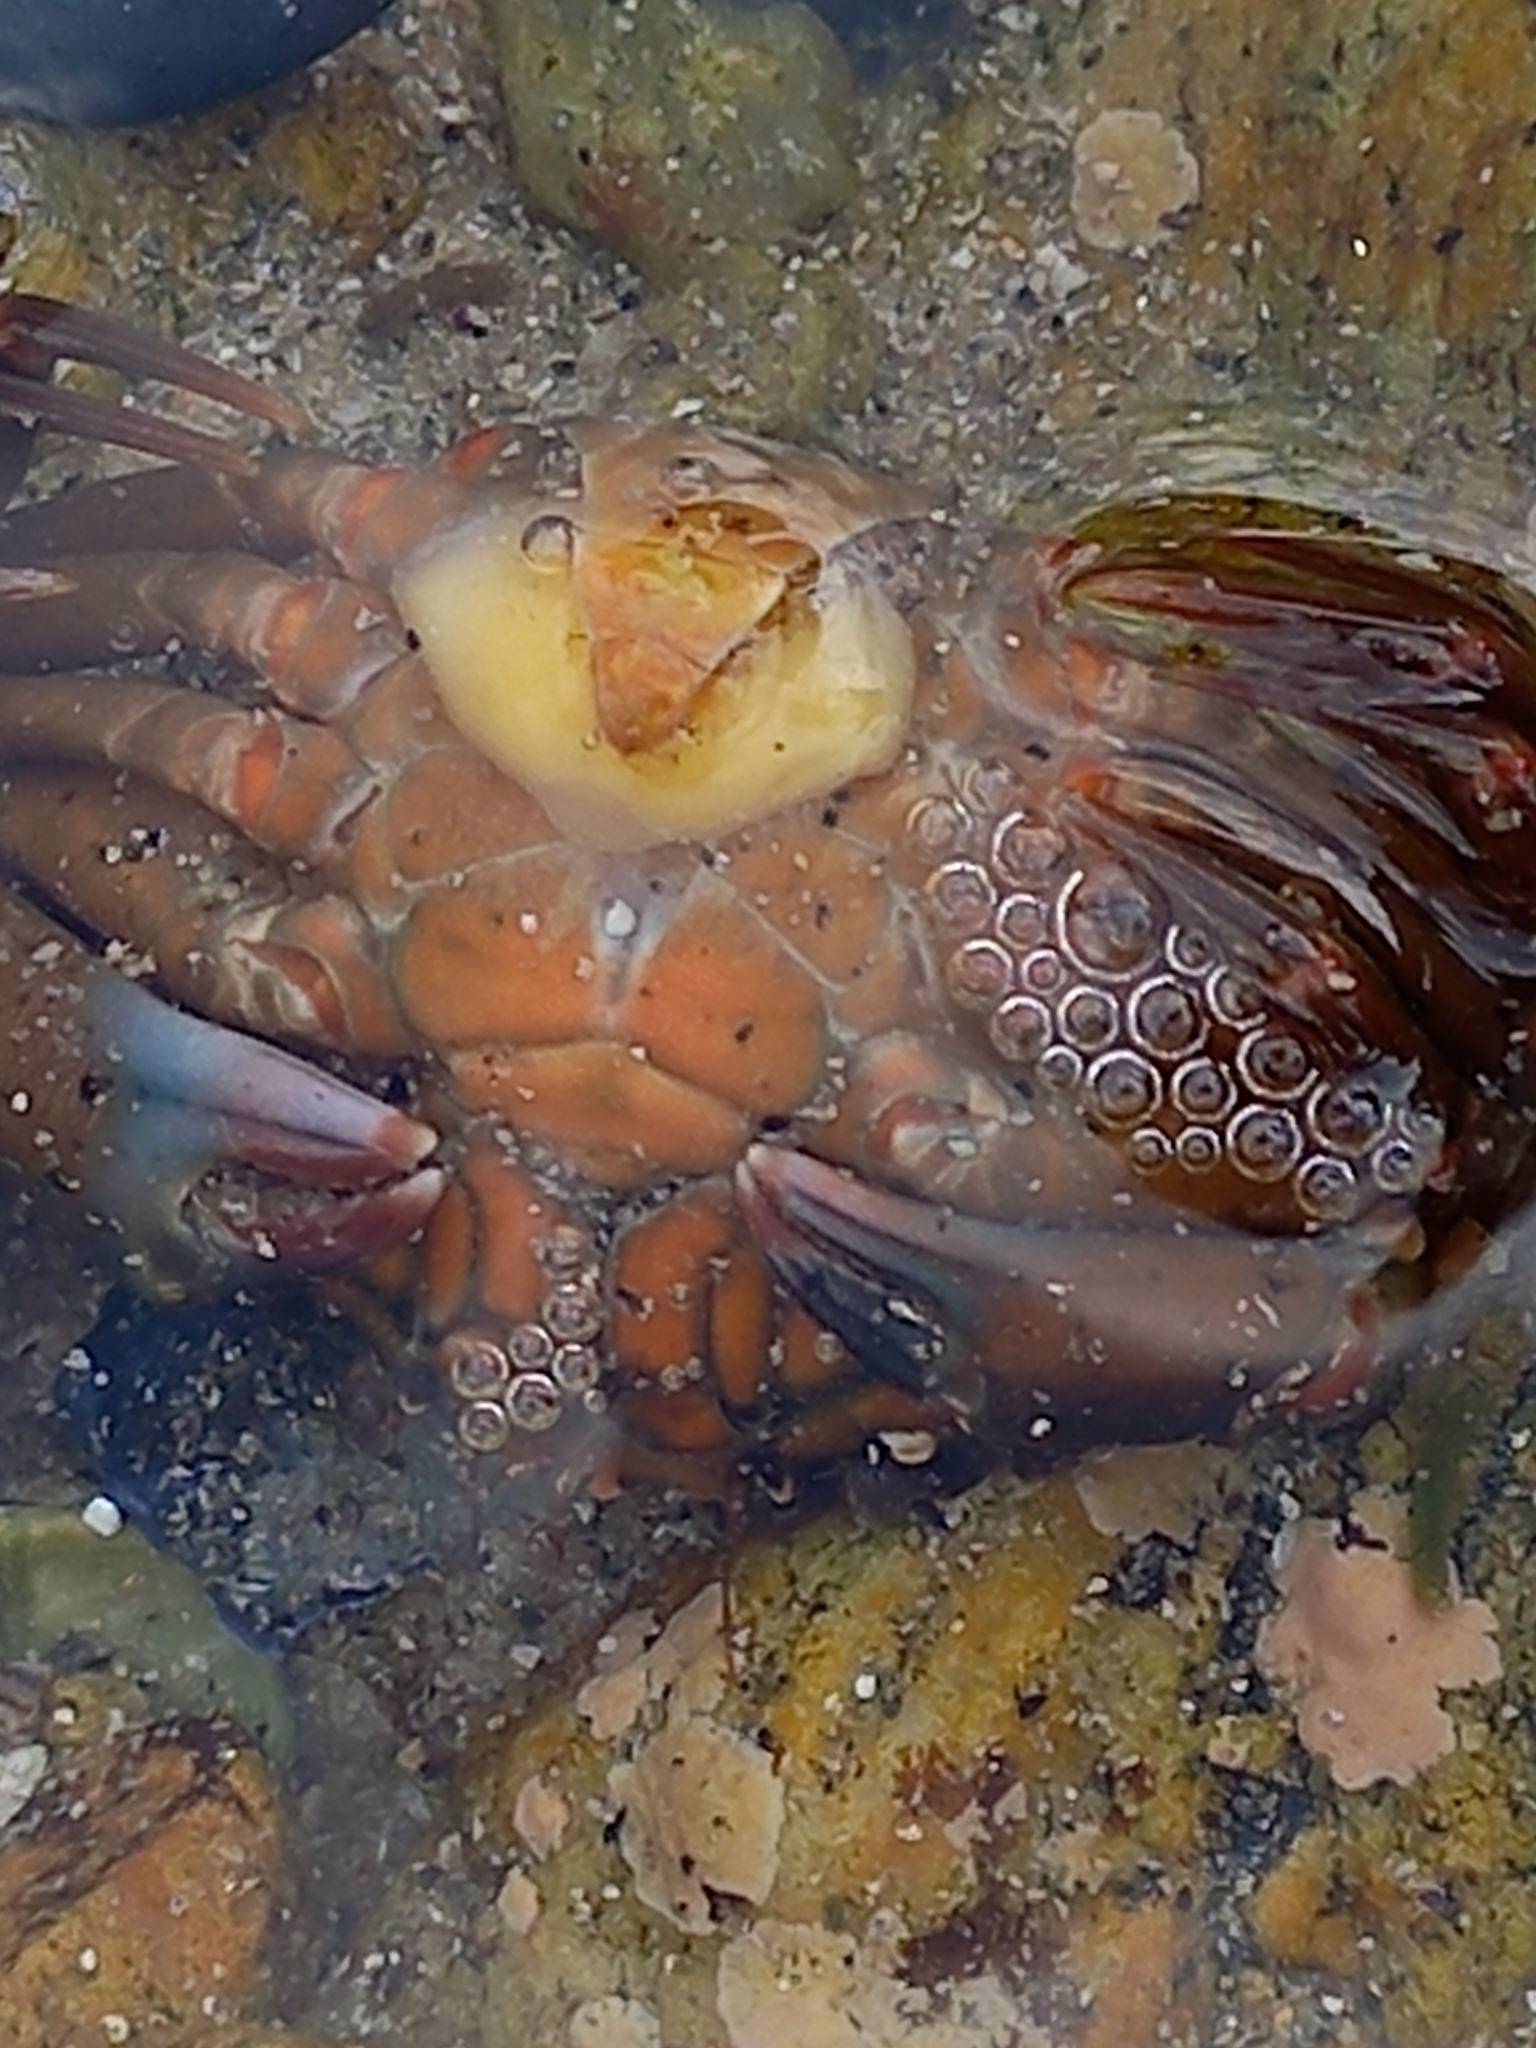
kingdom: Animalia
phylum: Arthropoda
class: Maxillopoda
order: Kentrogonida
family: Sacculinidae
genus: Sacculina
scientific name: Sacculina carcini
